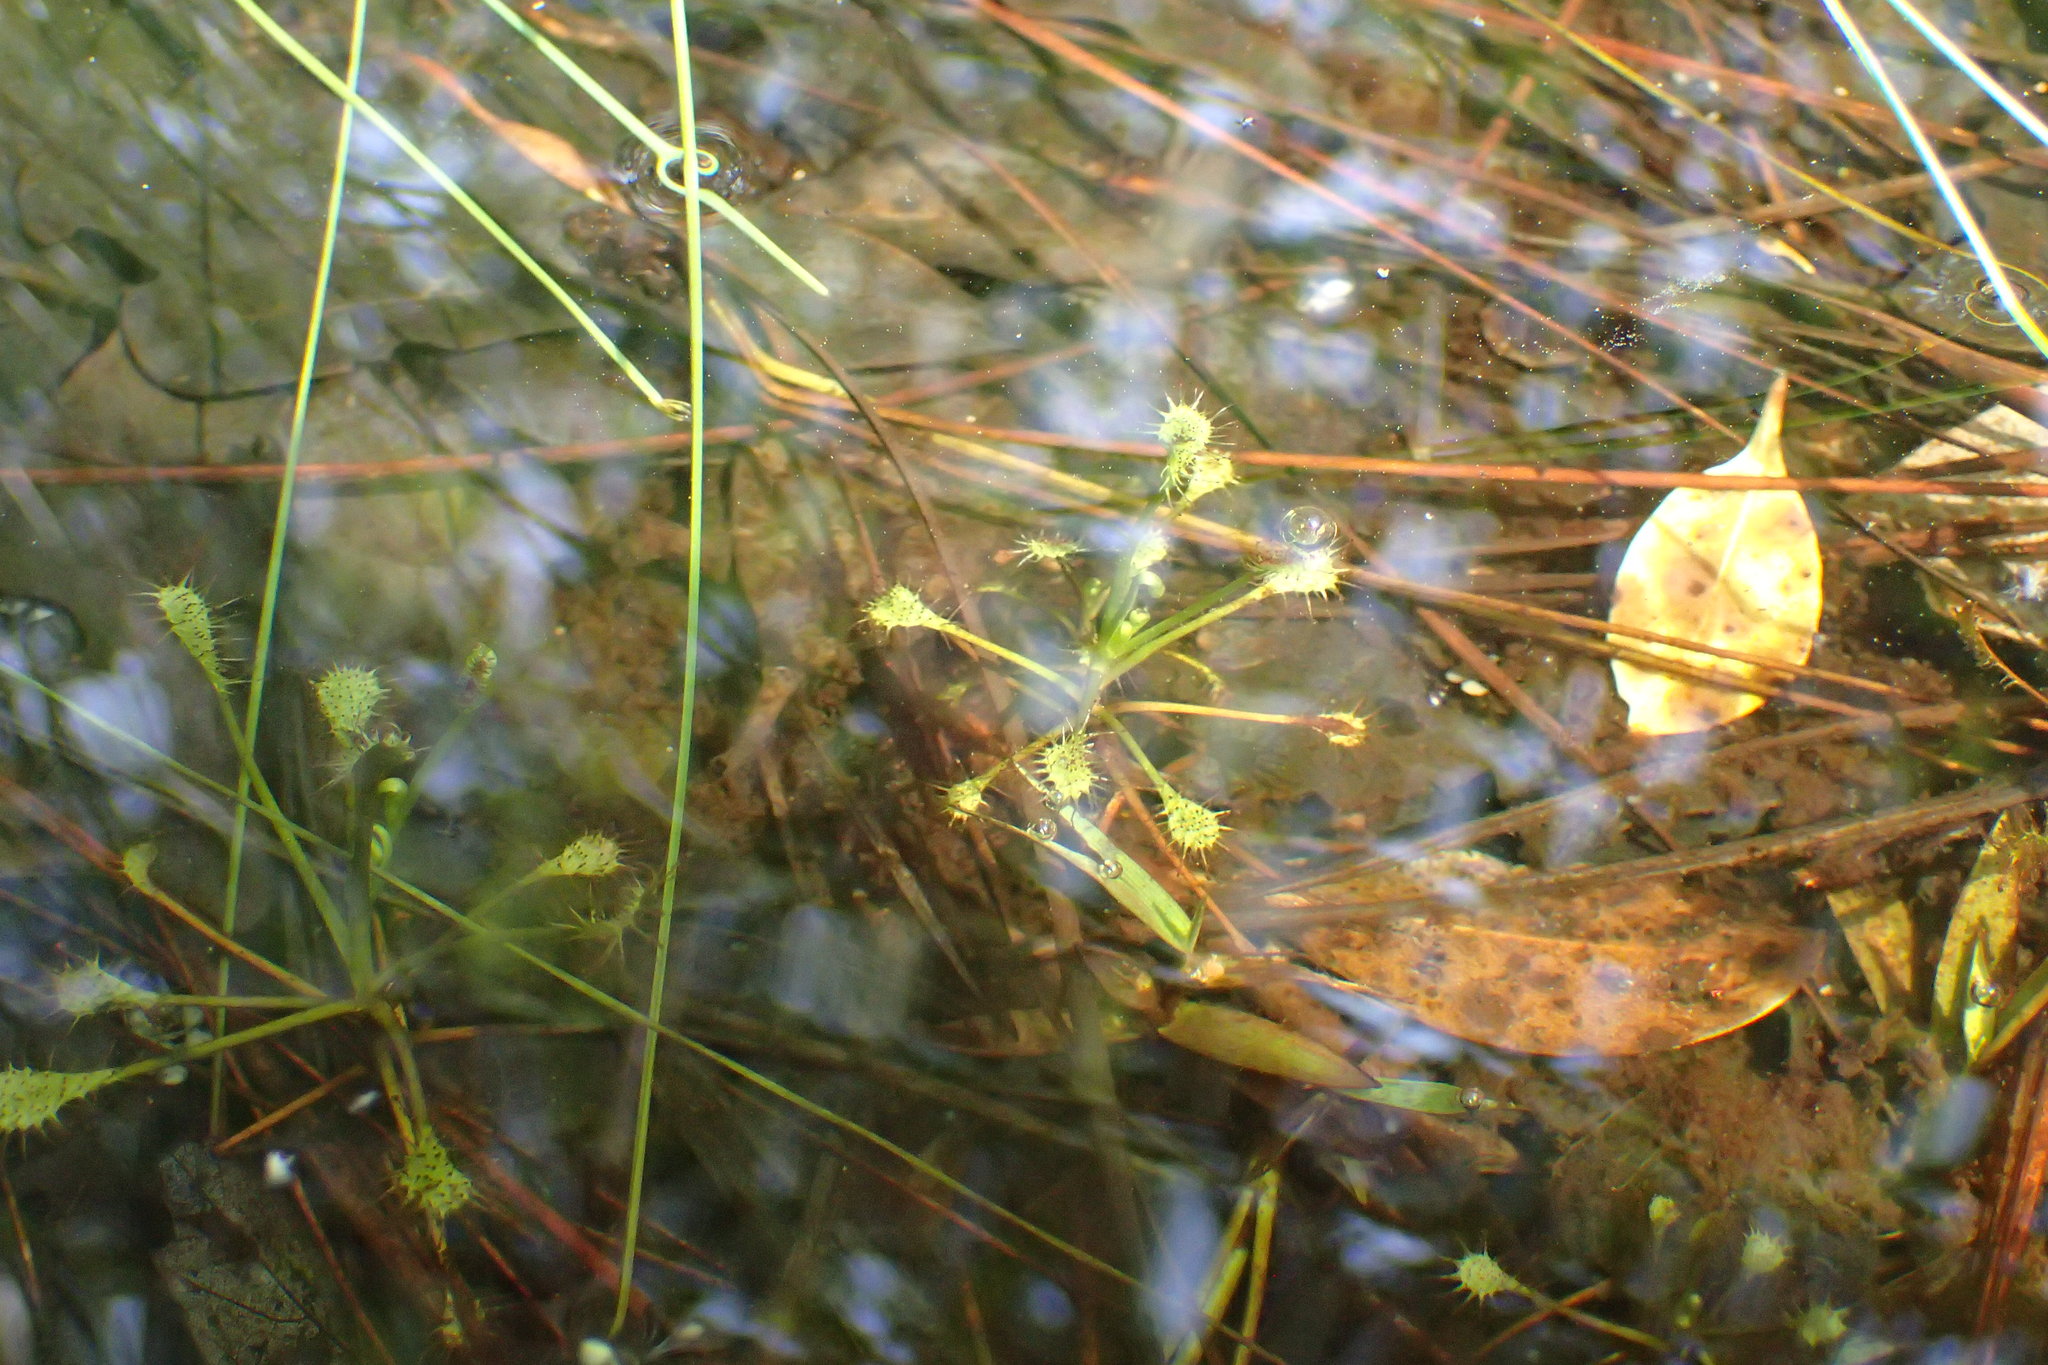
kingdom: Plantae
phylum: Tracheophyta
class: Magnoliopsida
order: Caryophyllales
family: Droseraceae
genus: Drosera
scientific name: Drosera intermedia
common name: Oblong-leaved sundew
